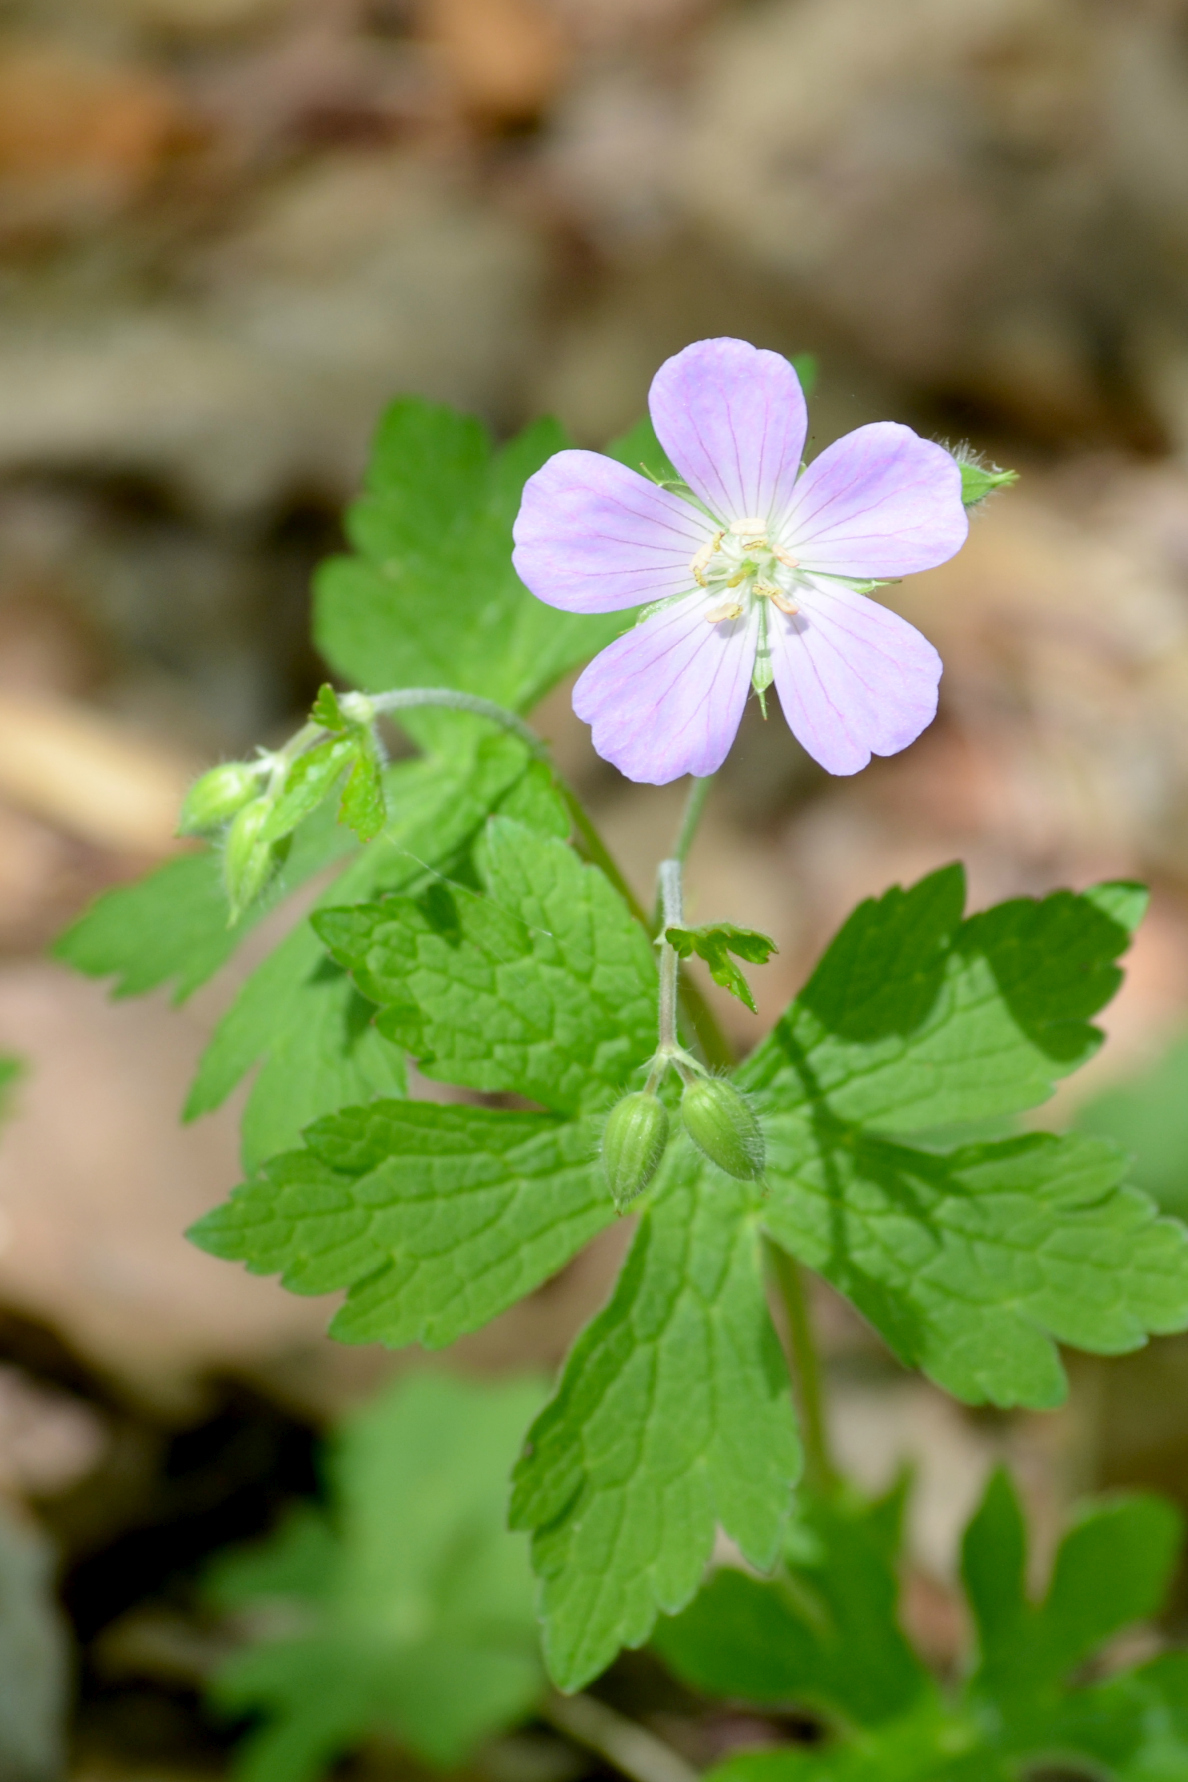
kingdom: Plantae
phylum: Tracheophyta
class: Magnoliopsida
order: Geraniales
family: Geraniaceae
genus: Geranium
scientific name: Geranium maculatum
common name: Spotted geranium
